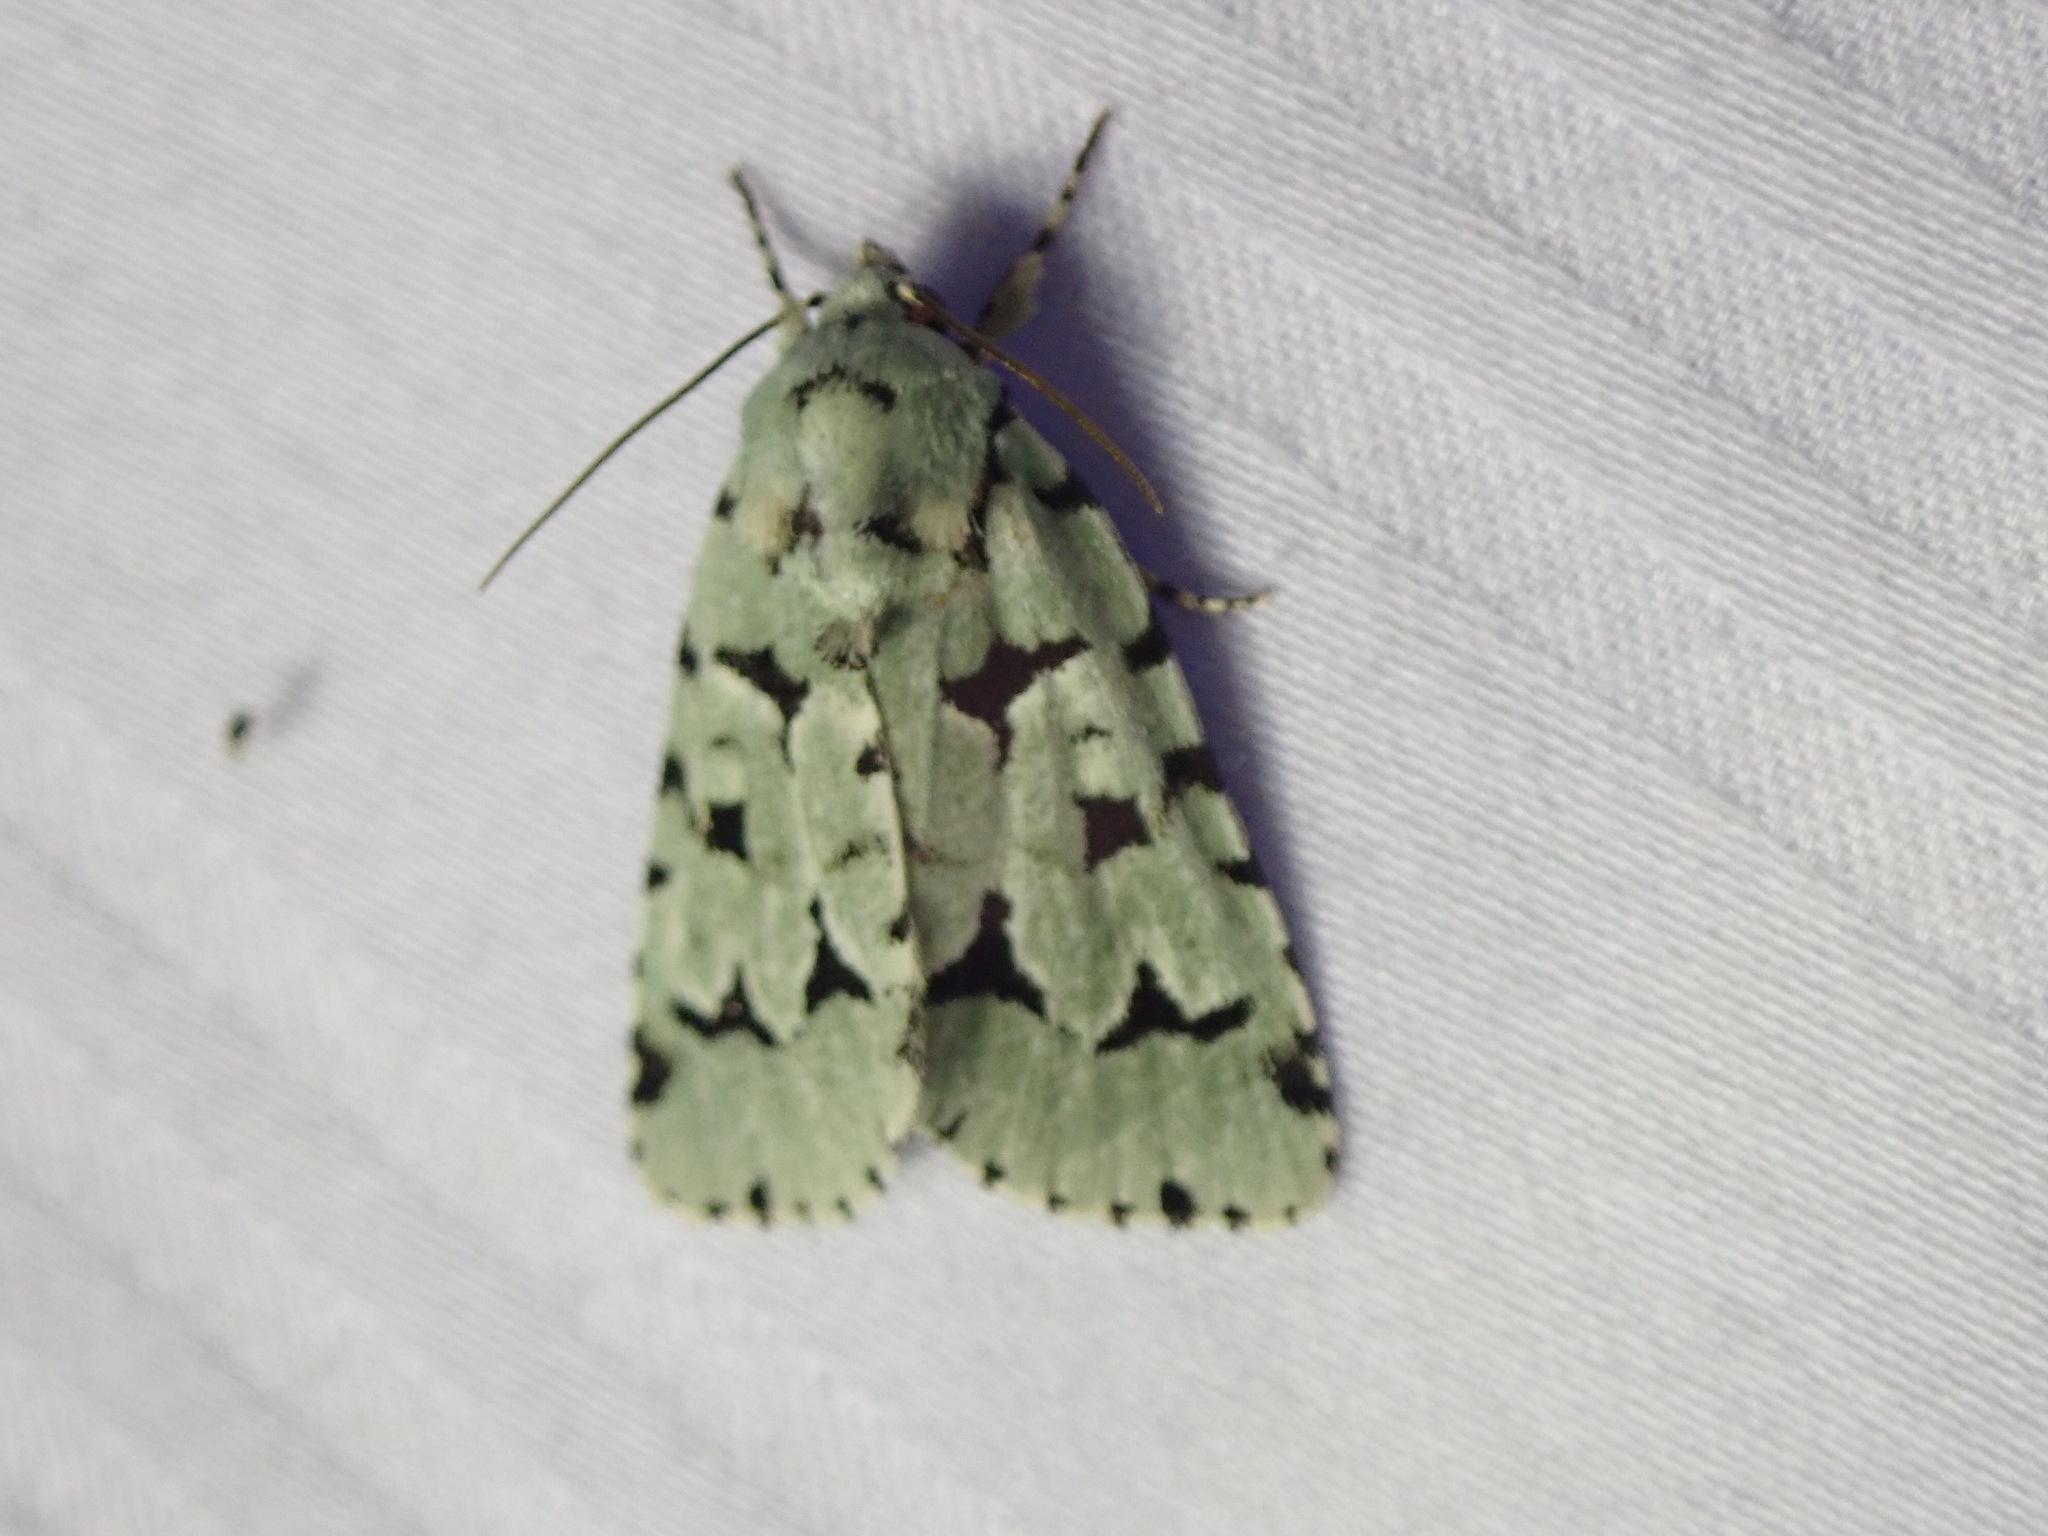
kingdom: Animalia
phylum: Arthropoda
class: Insecta
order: Lepidoptera
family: Noctuidae
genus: Acronicta
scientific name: Acronicta fallax
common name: Green marvel
